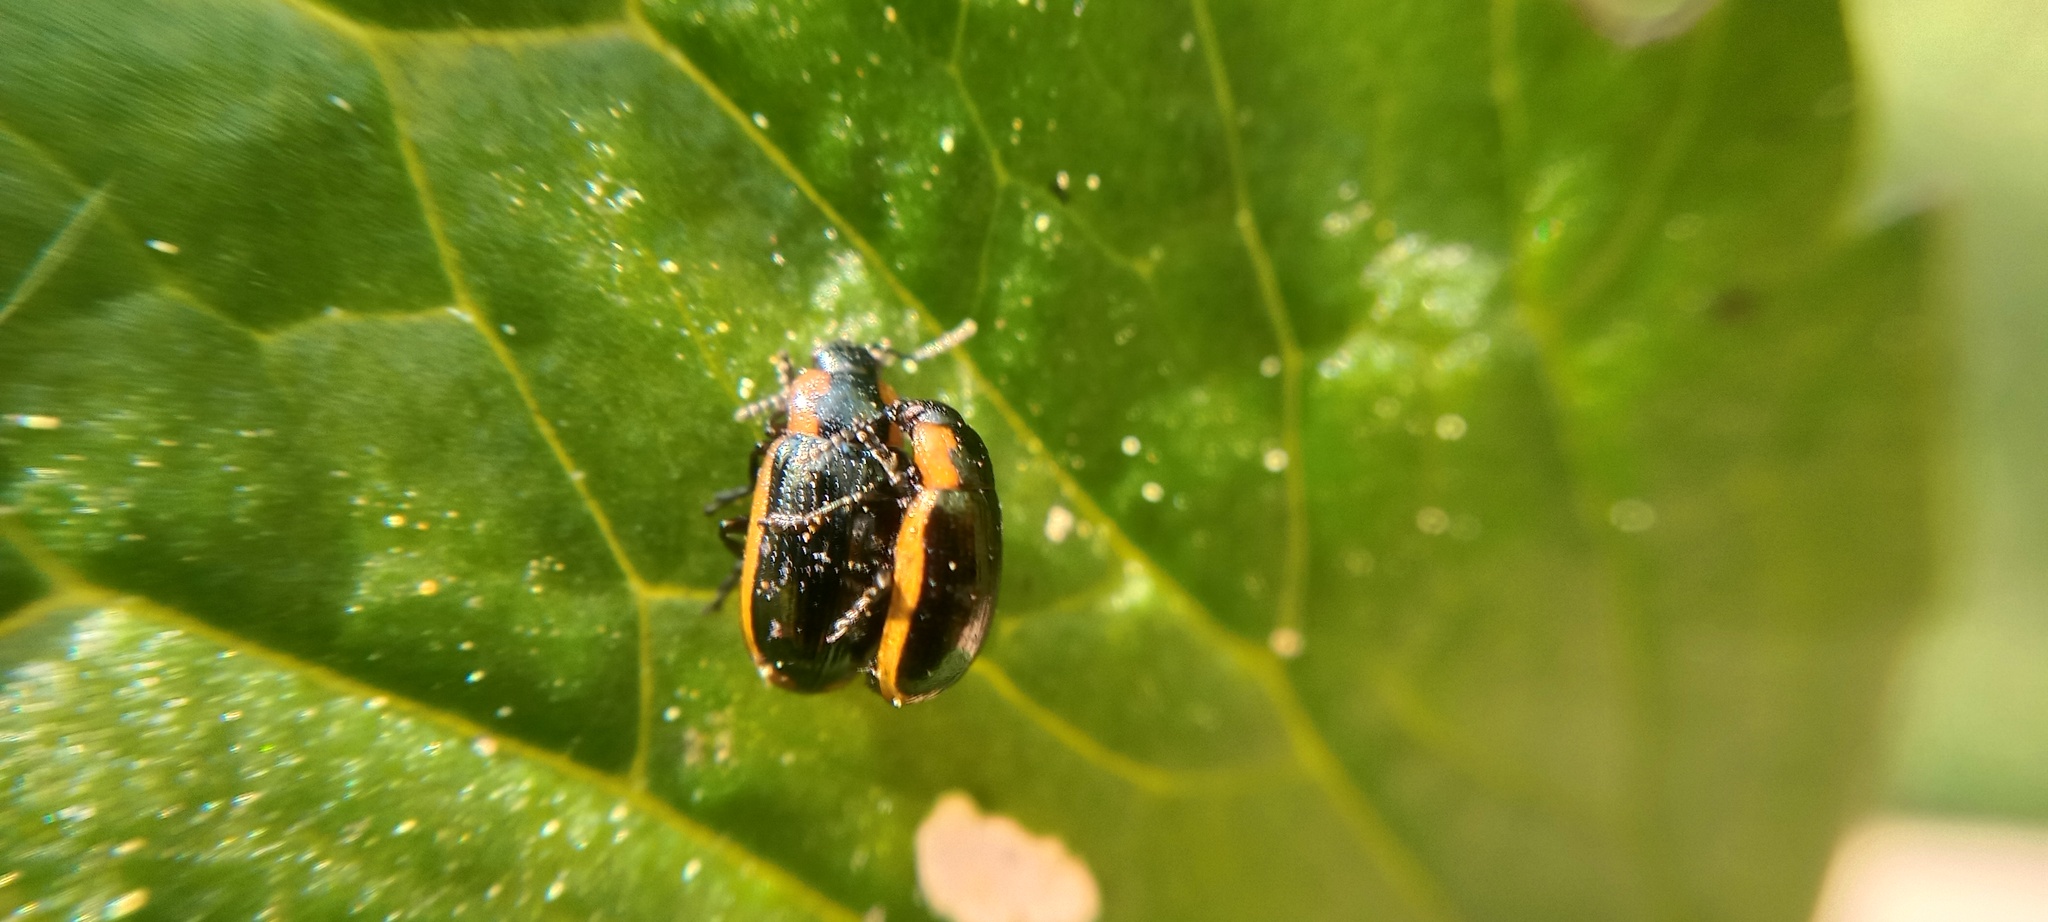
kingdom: Animalia
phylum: Arthropoda
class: Insecta
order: Coleoptera
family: Chrysomelidae
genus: Prasocuris
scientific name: Prasocuris marginella
